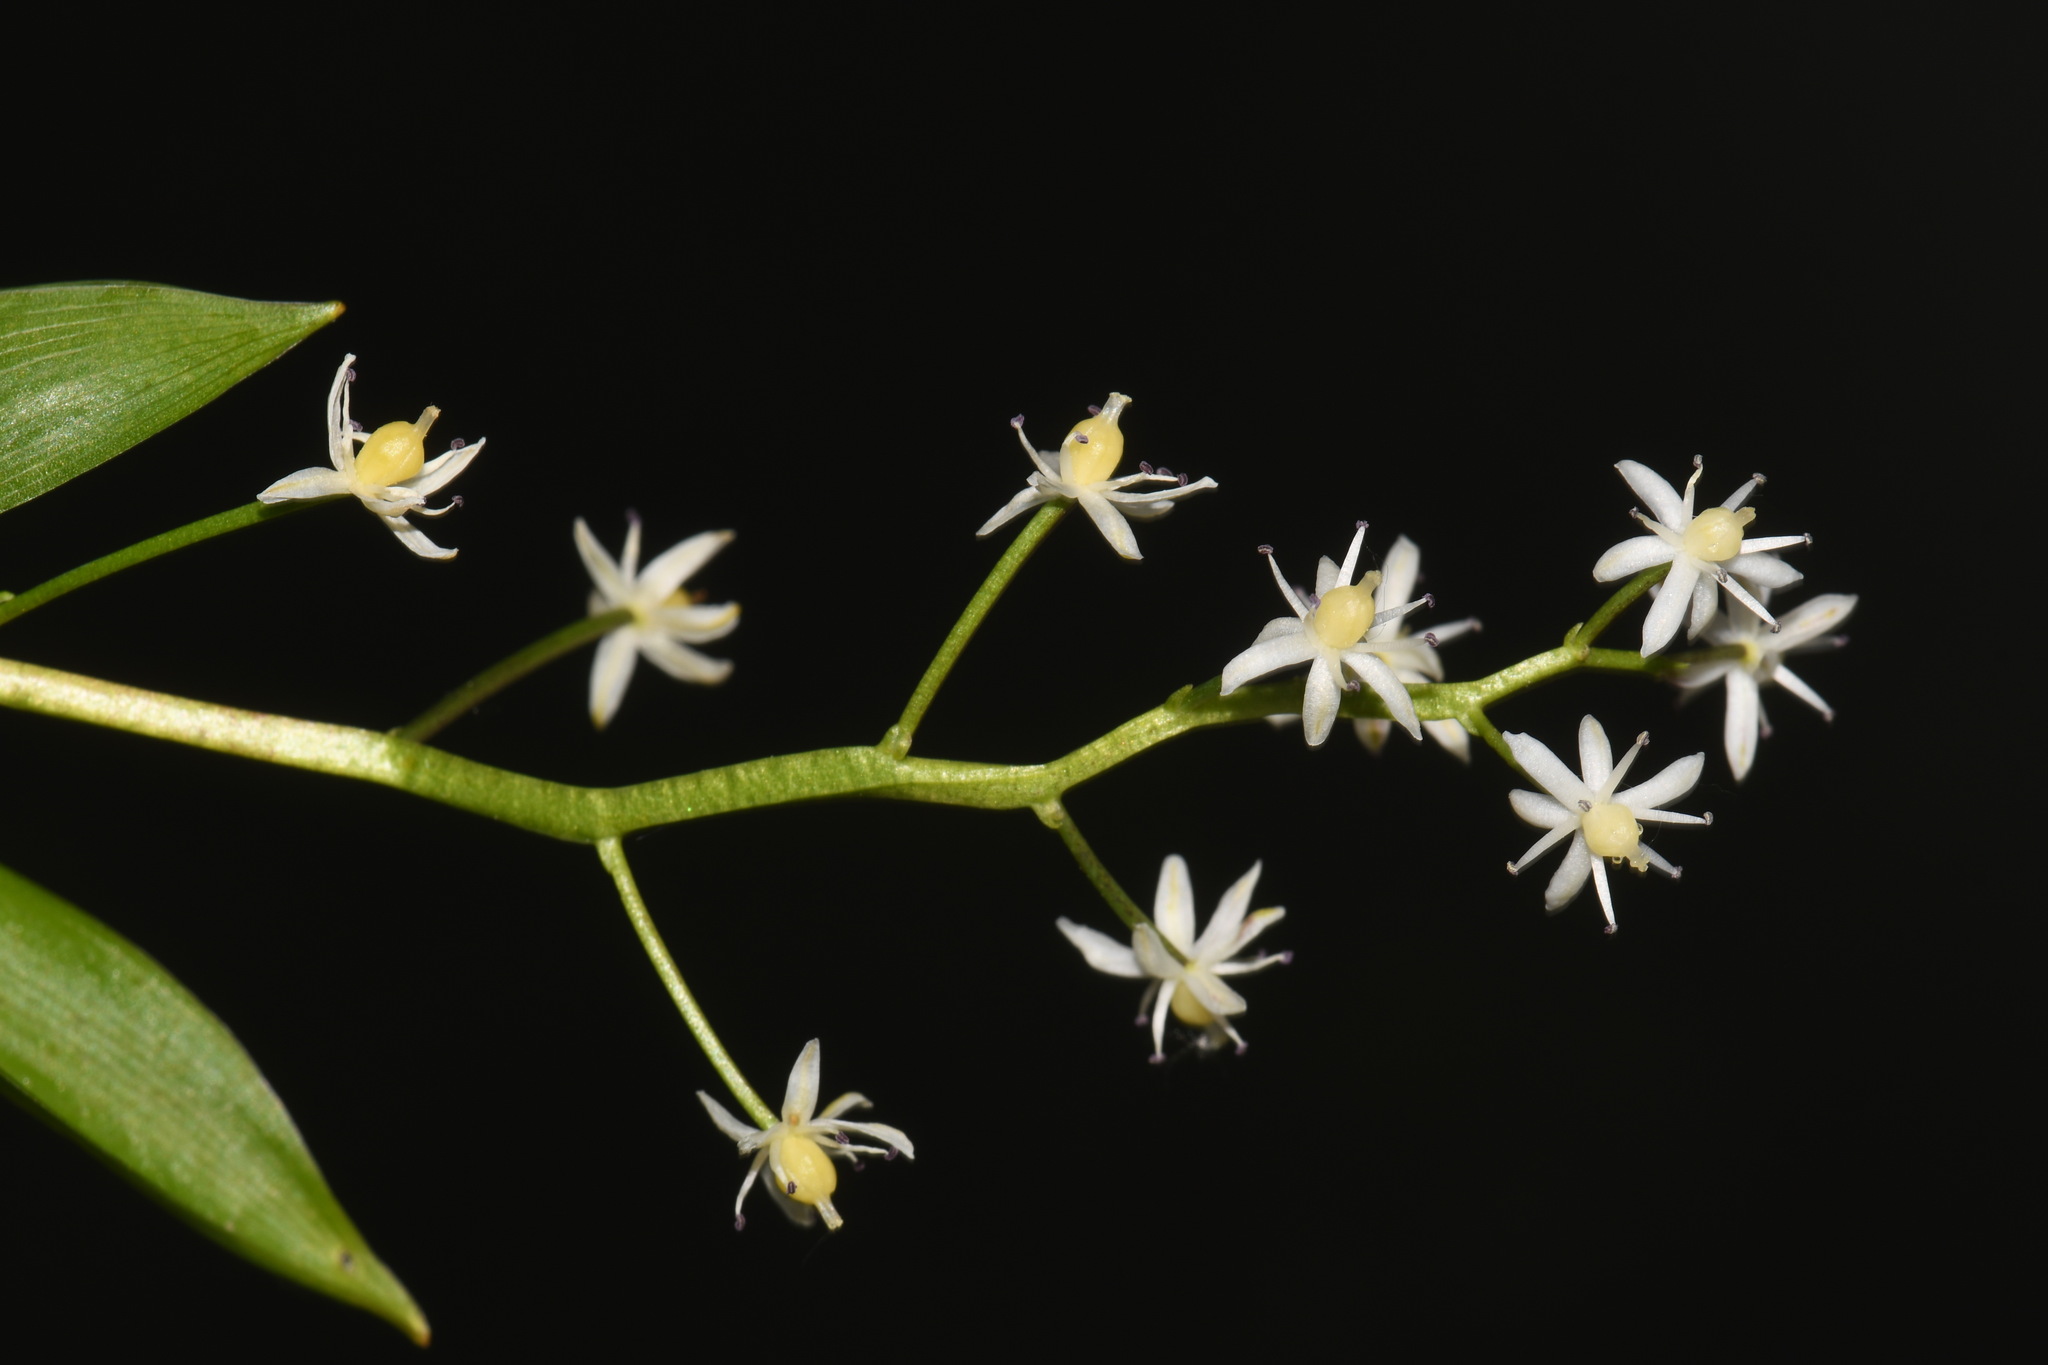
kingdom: Plantae
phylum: Tracheophyta
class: Liliopsida
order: Asparagales
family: Asparagaceae
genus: Maianthemum
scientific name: Maianthemum trifolium
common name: Swamp false solomon's seal
